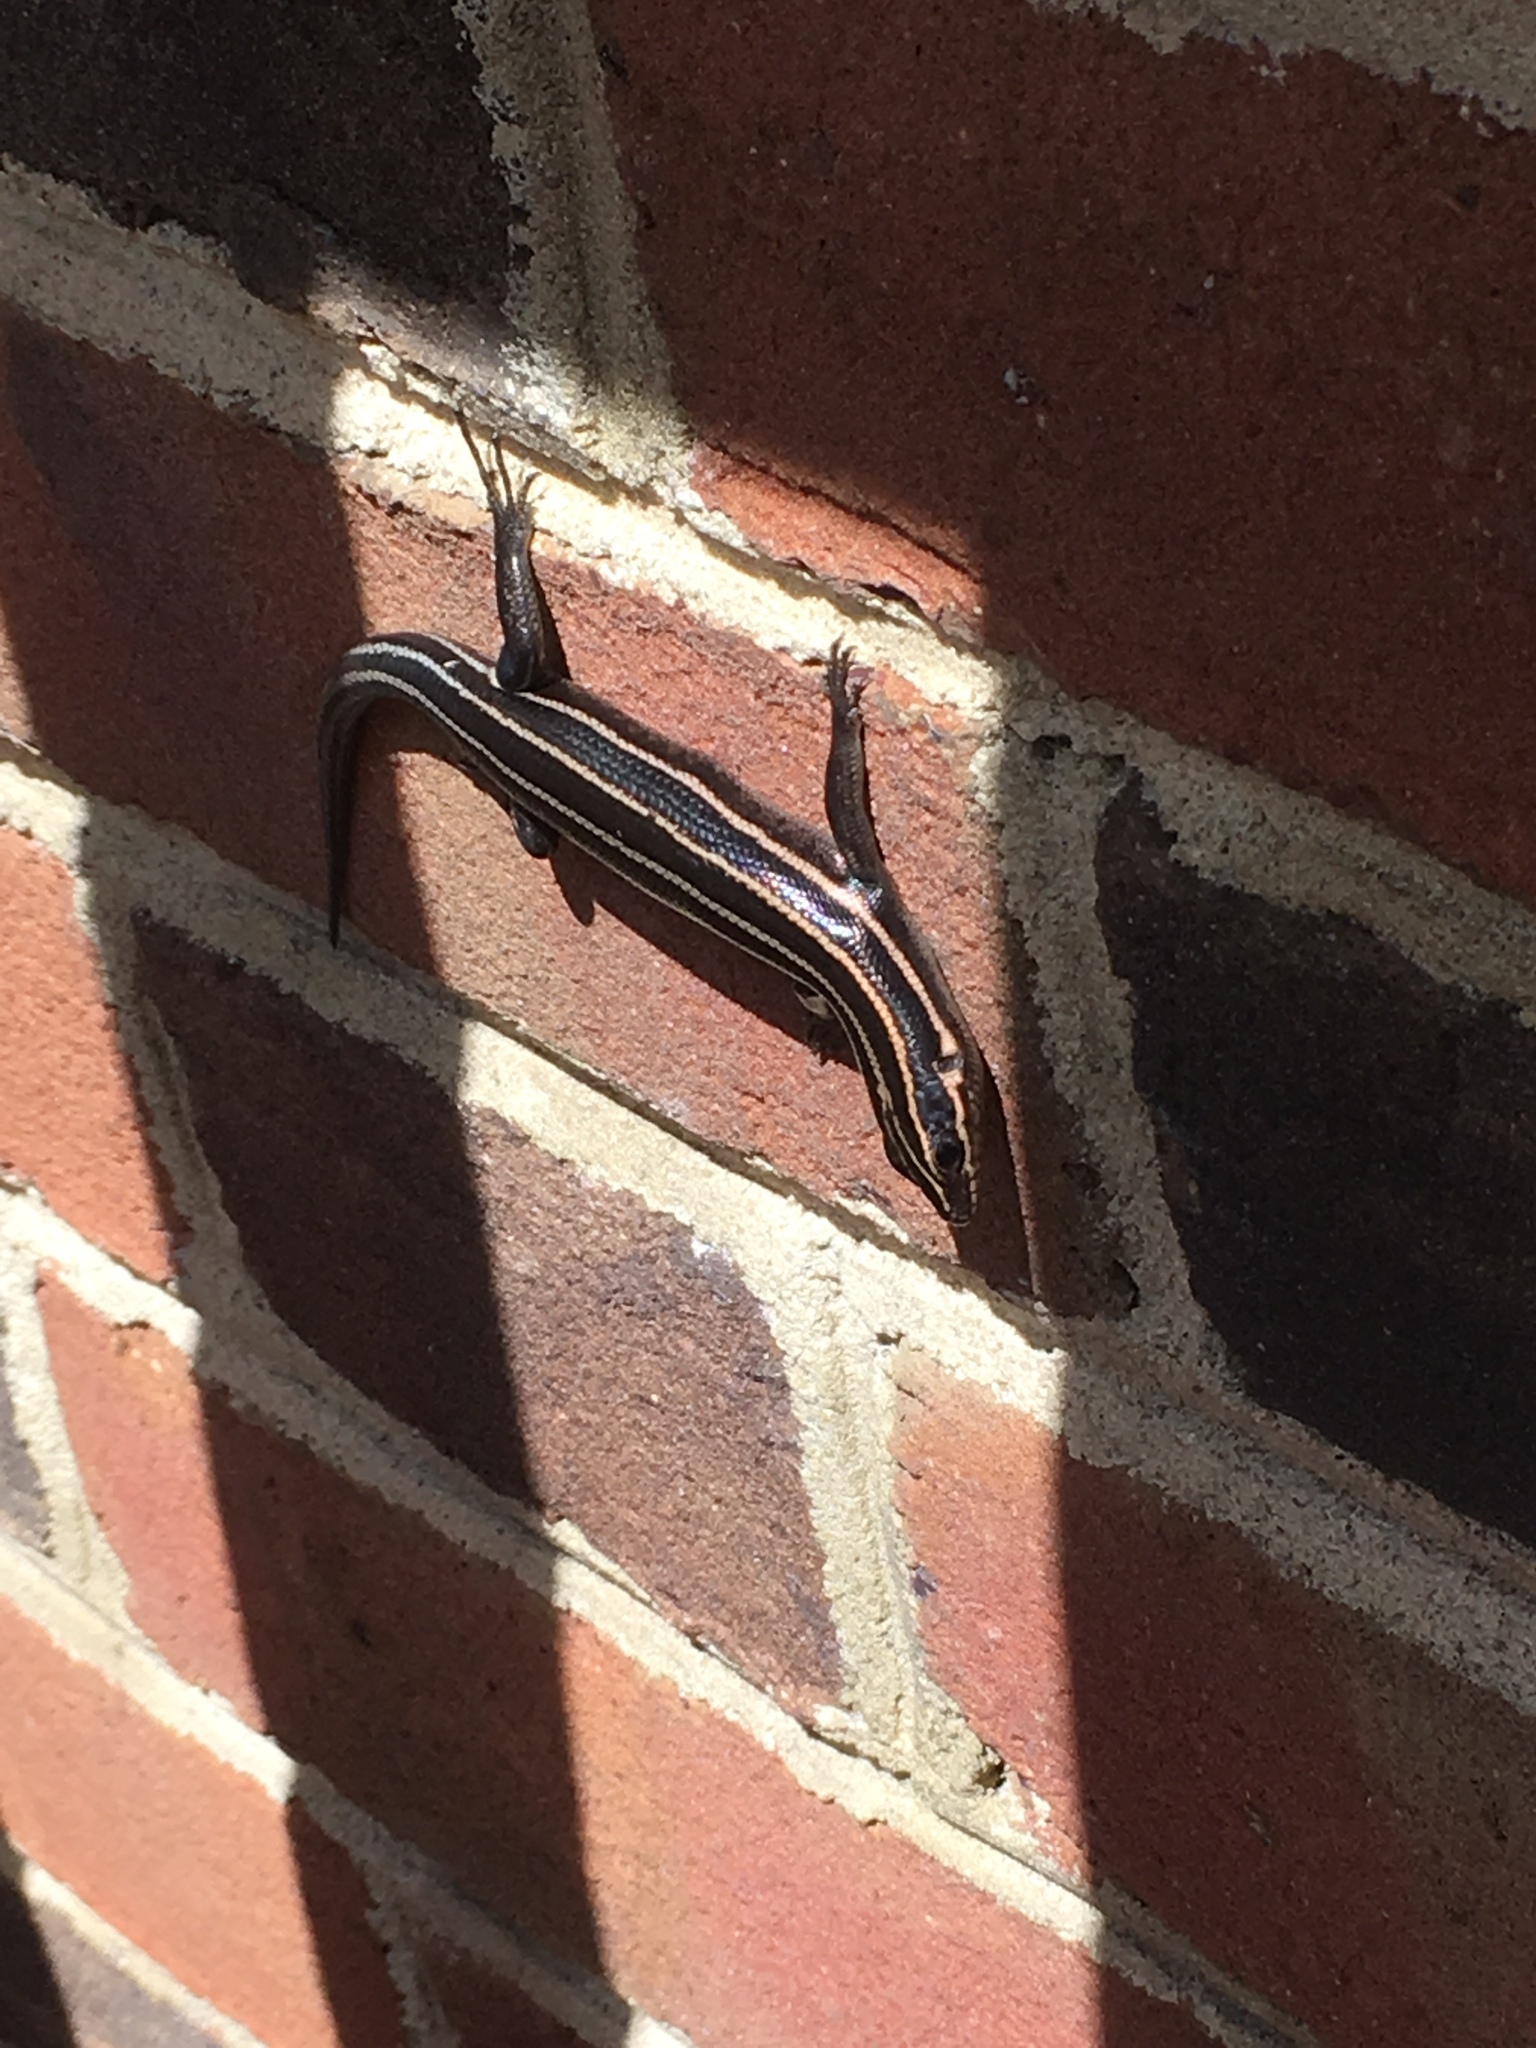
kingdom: Animalia
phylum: Chordata
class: Squamata
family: Scincidae
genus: Plestiodon
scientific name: Plestiodon fasciatus
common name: Five-lined skink
